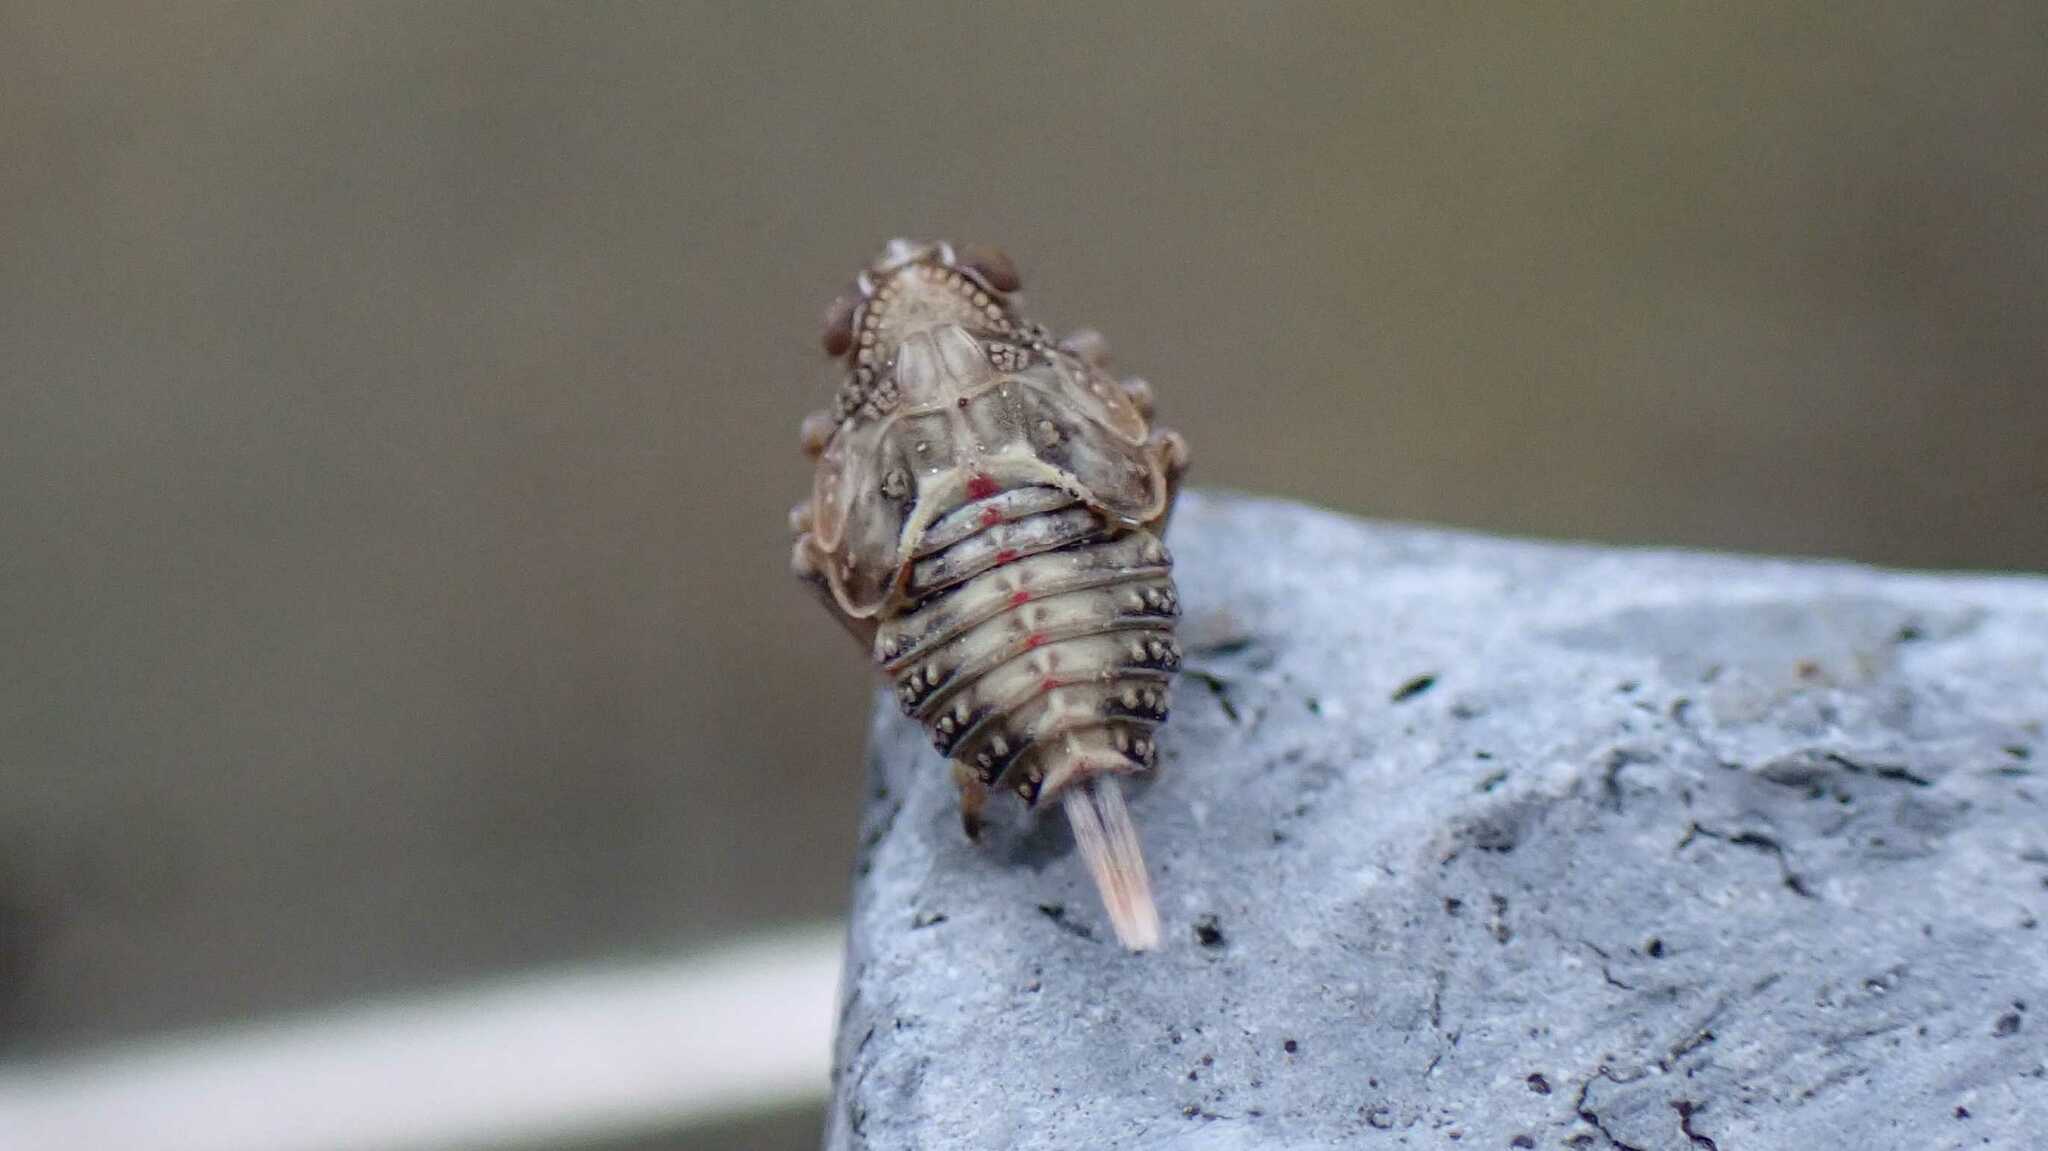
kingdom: Animalia
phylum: Arthropoda
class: Insecta
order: Hemiptera
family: Issidae
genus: Issus
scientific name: Issus coleoptratus
